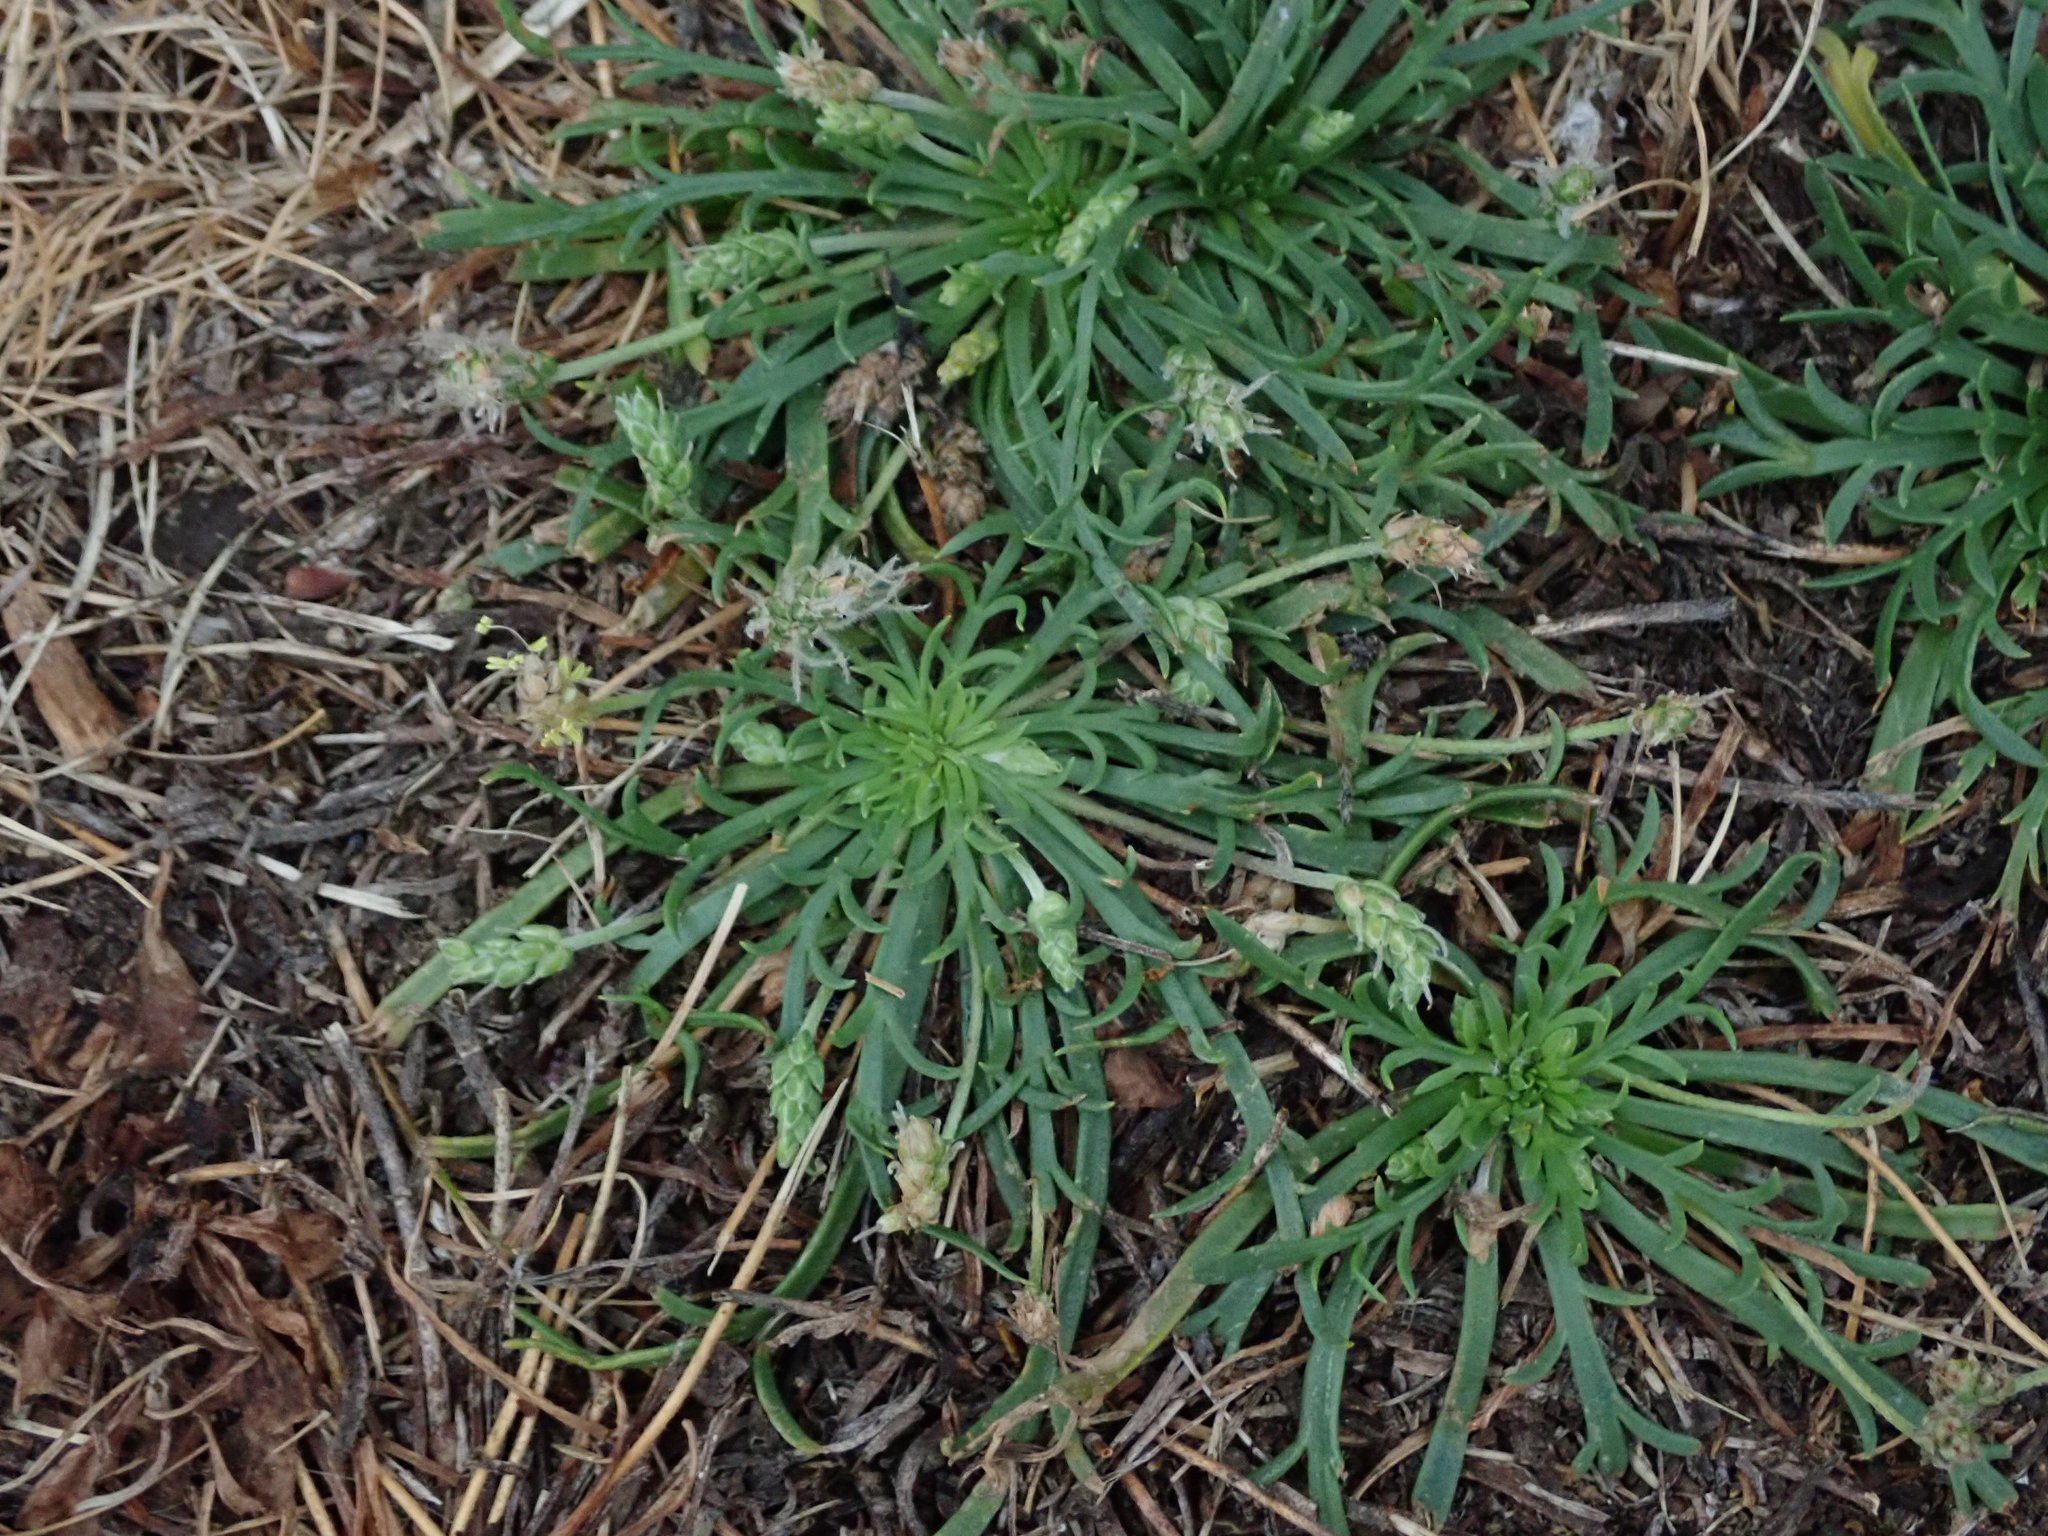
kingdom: Plantae
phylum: Tracheophyta
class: Magnoliopsida
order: Lamiales
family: Plantaginaceae
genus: Plantago
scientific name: Plantago coronopus
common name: Buck's-horn plantain
